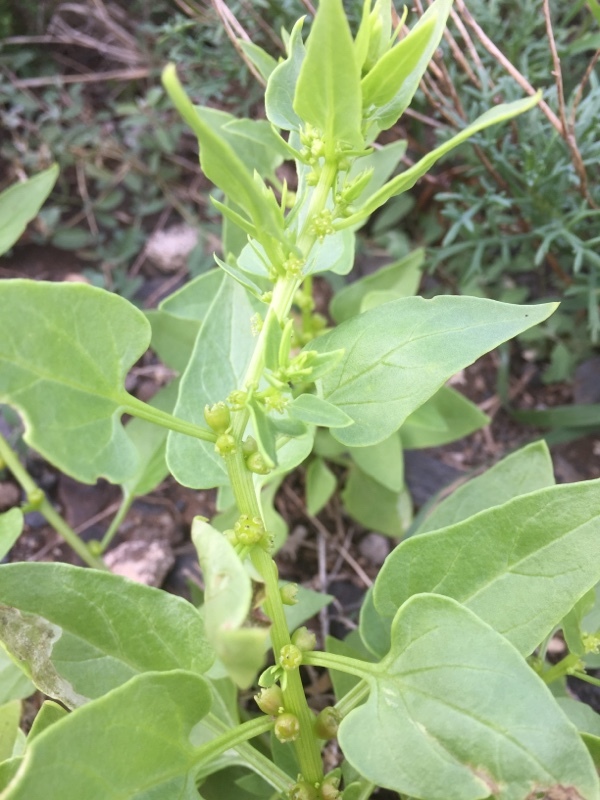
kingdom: Plantae
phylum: Tracheophyta
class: Magnoliopsida
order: Caryophyllales
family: Amaranthaceae
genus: Patellifolia
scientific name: Patellifolia procumbens
